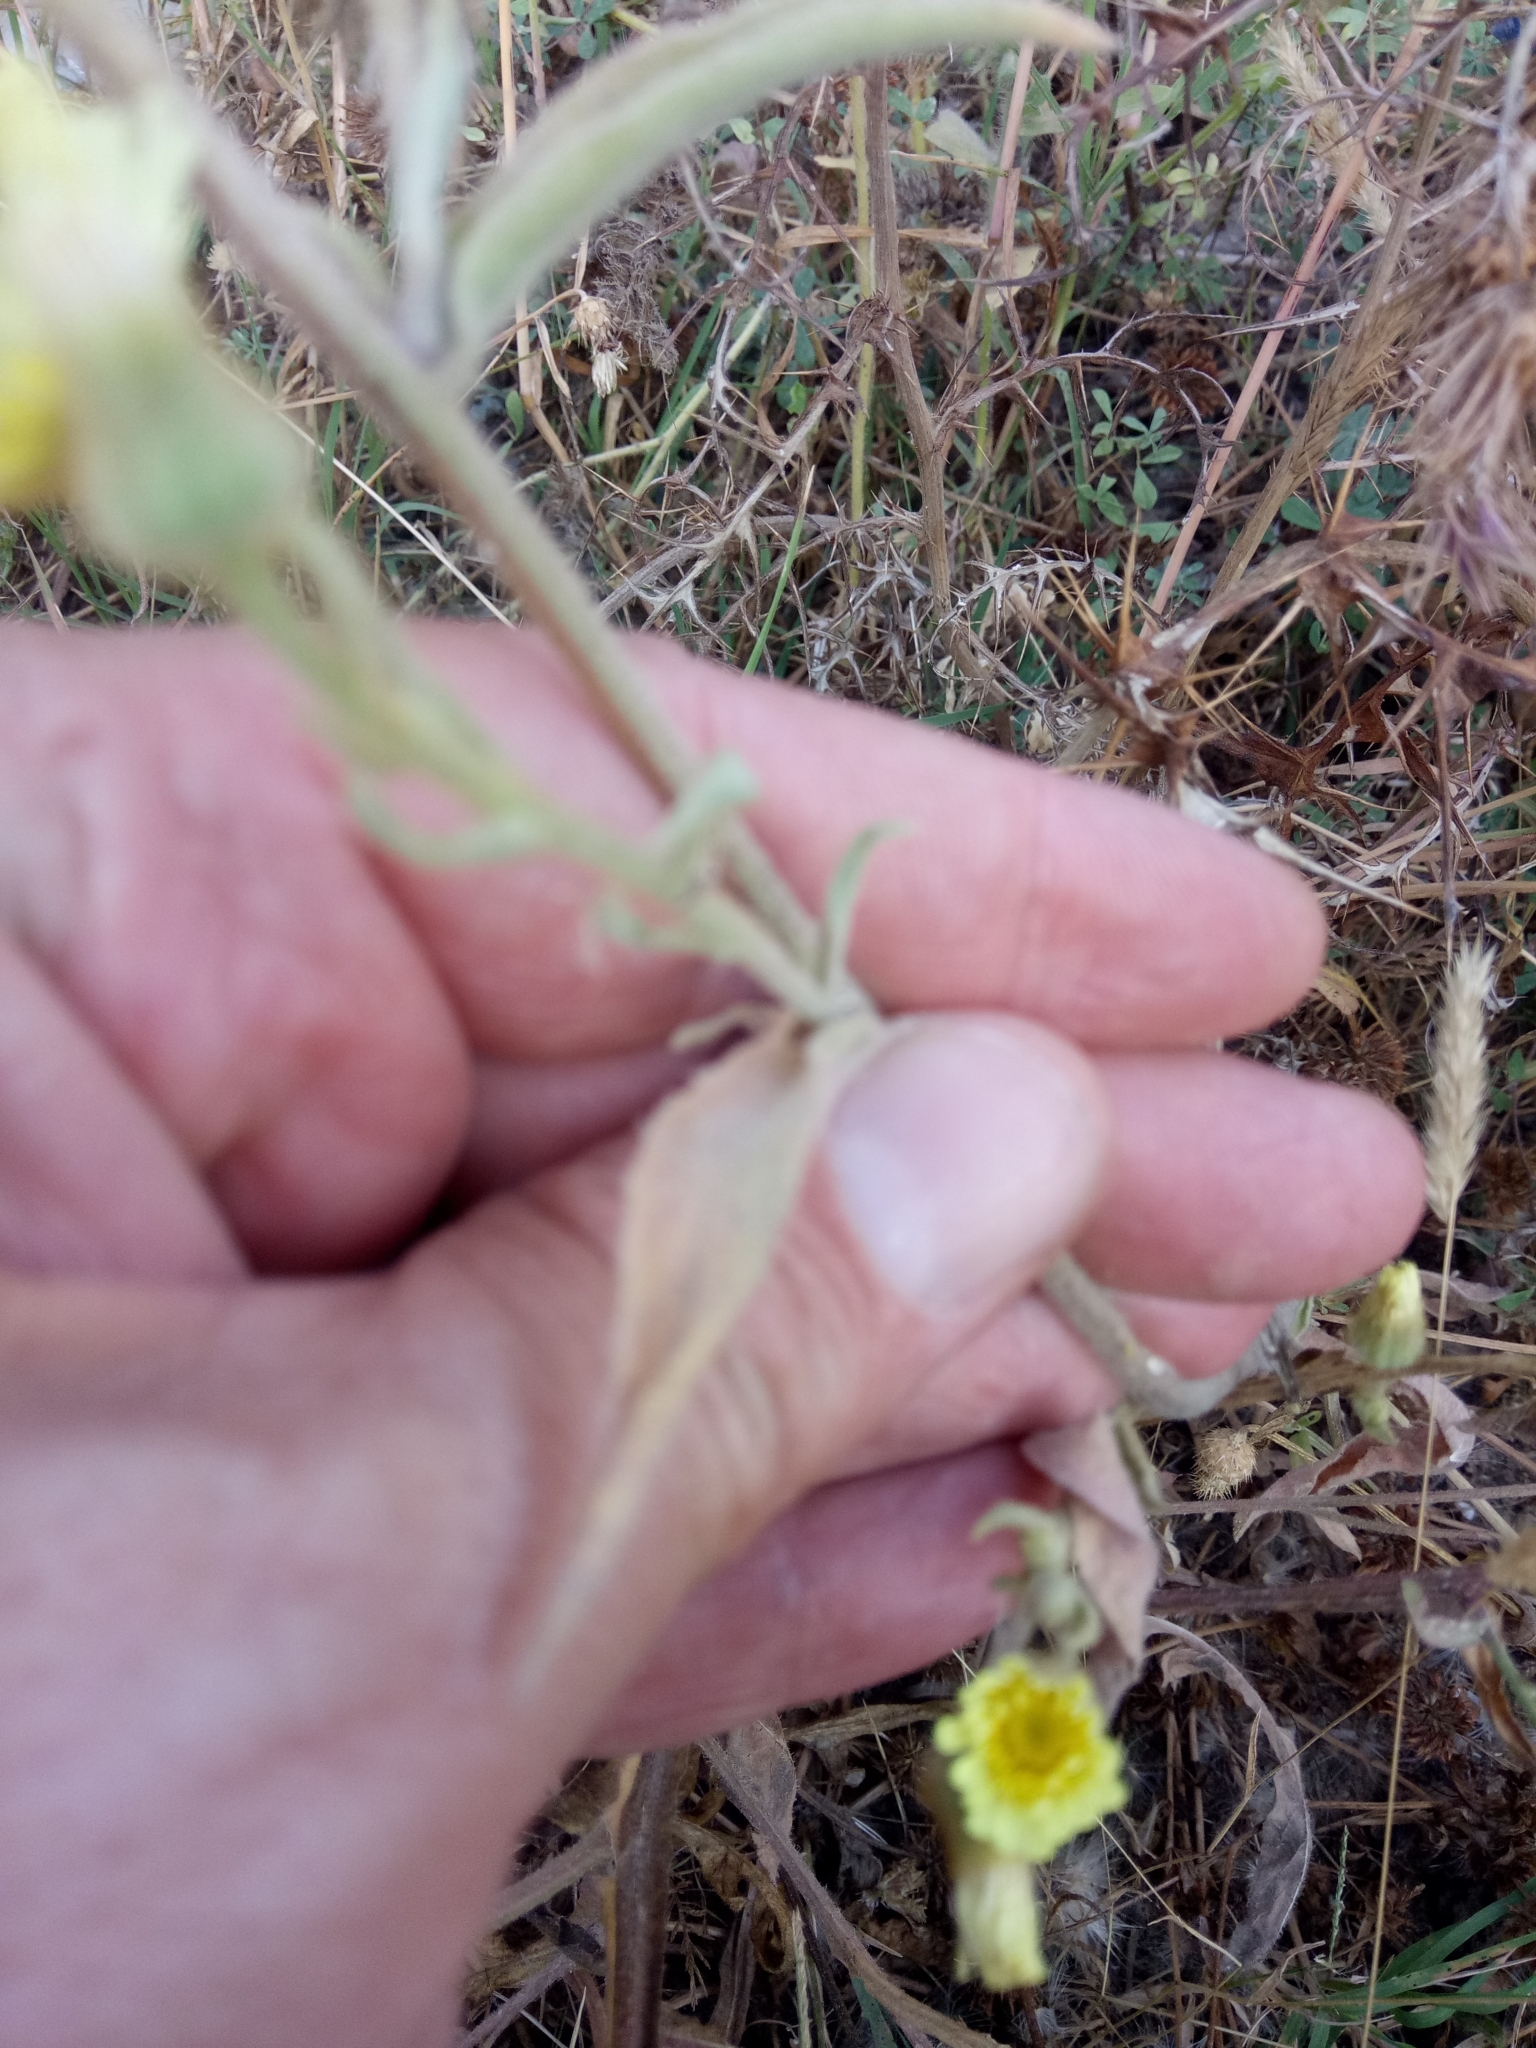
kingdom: Plantae
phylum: Tracheophyta
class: Magnoliopsida
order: Asterales
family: Asteraceae
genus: Andryala
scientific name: Andryala integrifolia
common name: Common andryala
